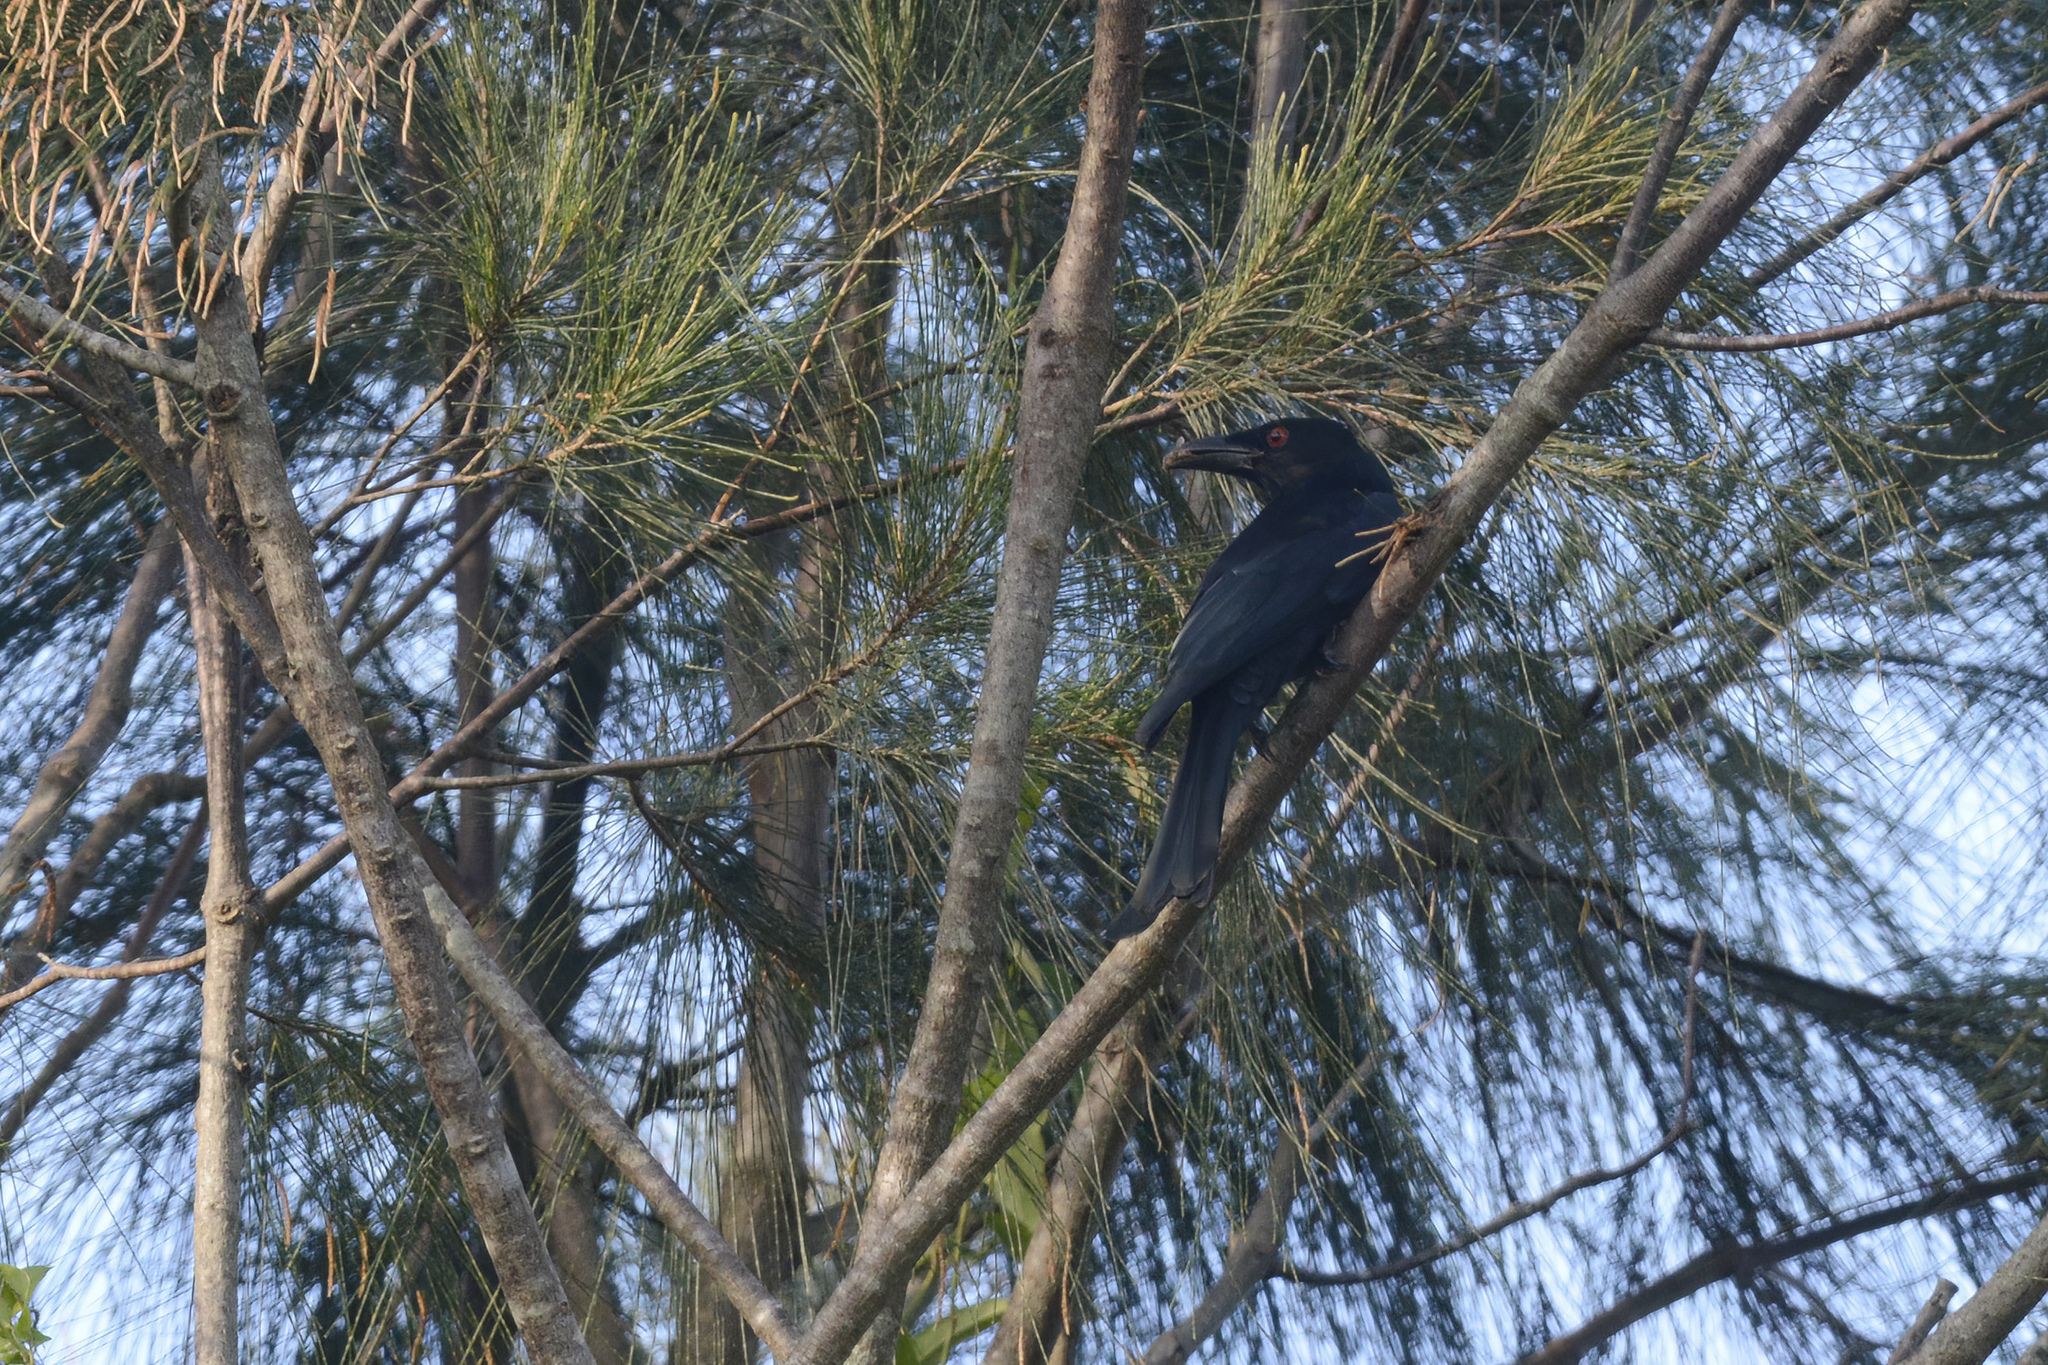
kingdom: Animalia
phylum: Chordata
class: Aves
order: Passeriformes
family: Dicruridae
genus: Dicrurus
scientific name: Dicrurus bracteatus
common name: Spangled drongo
